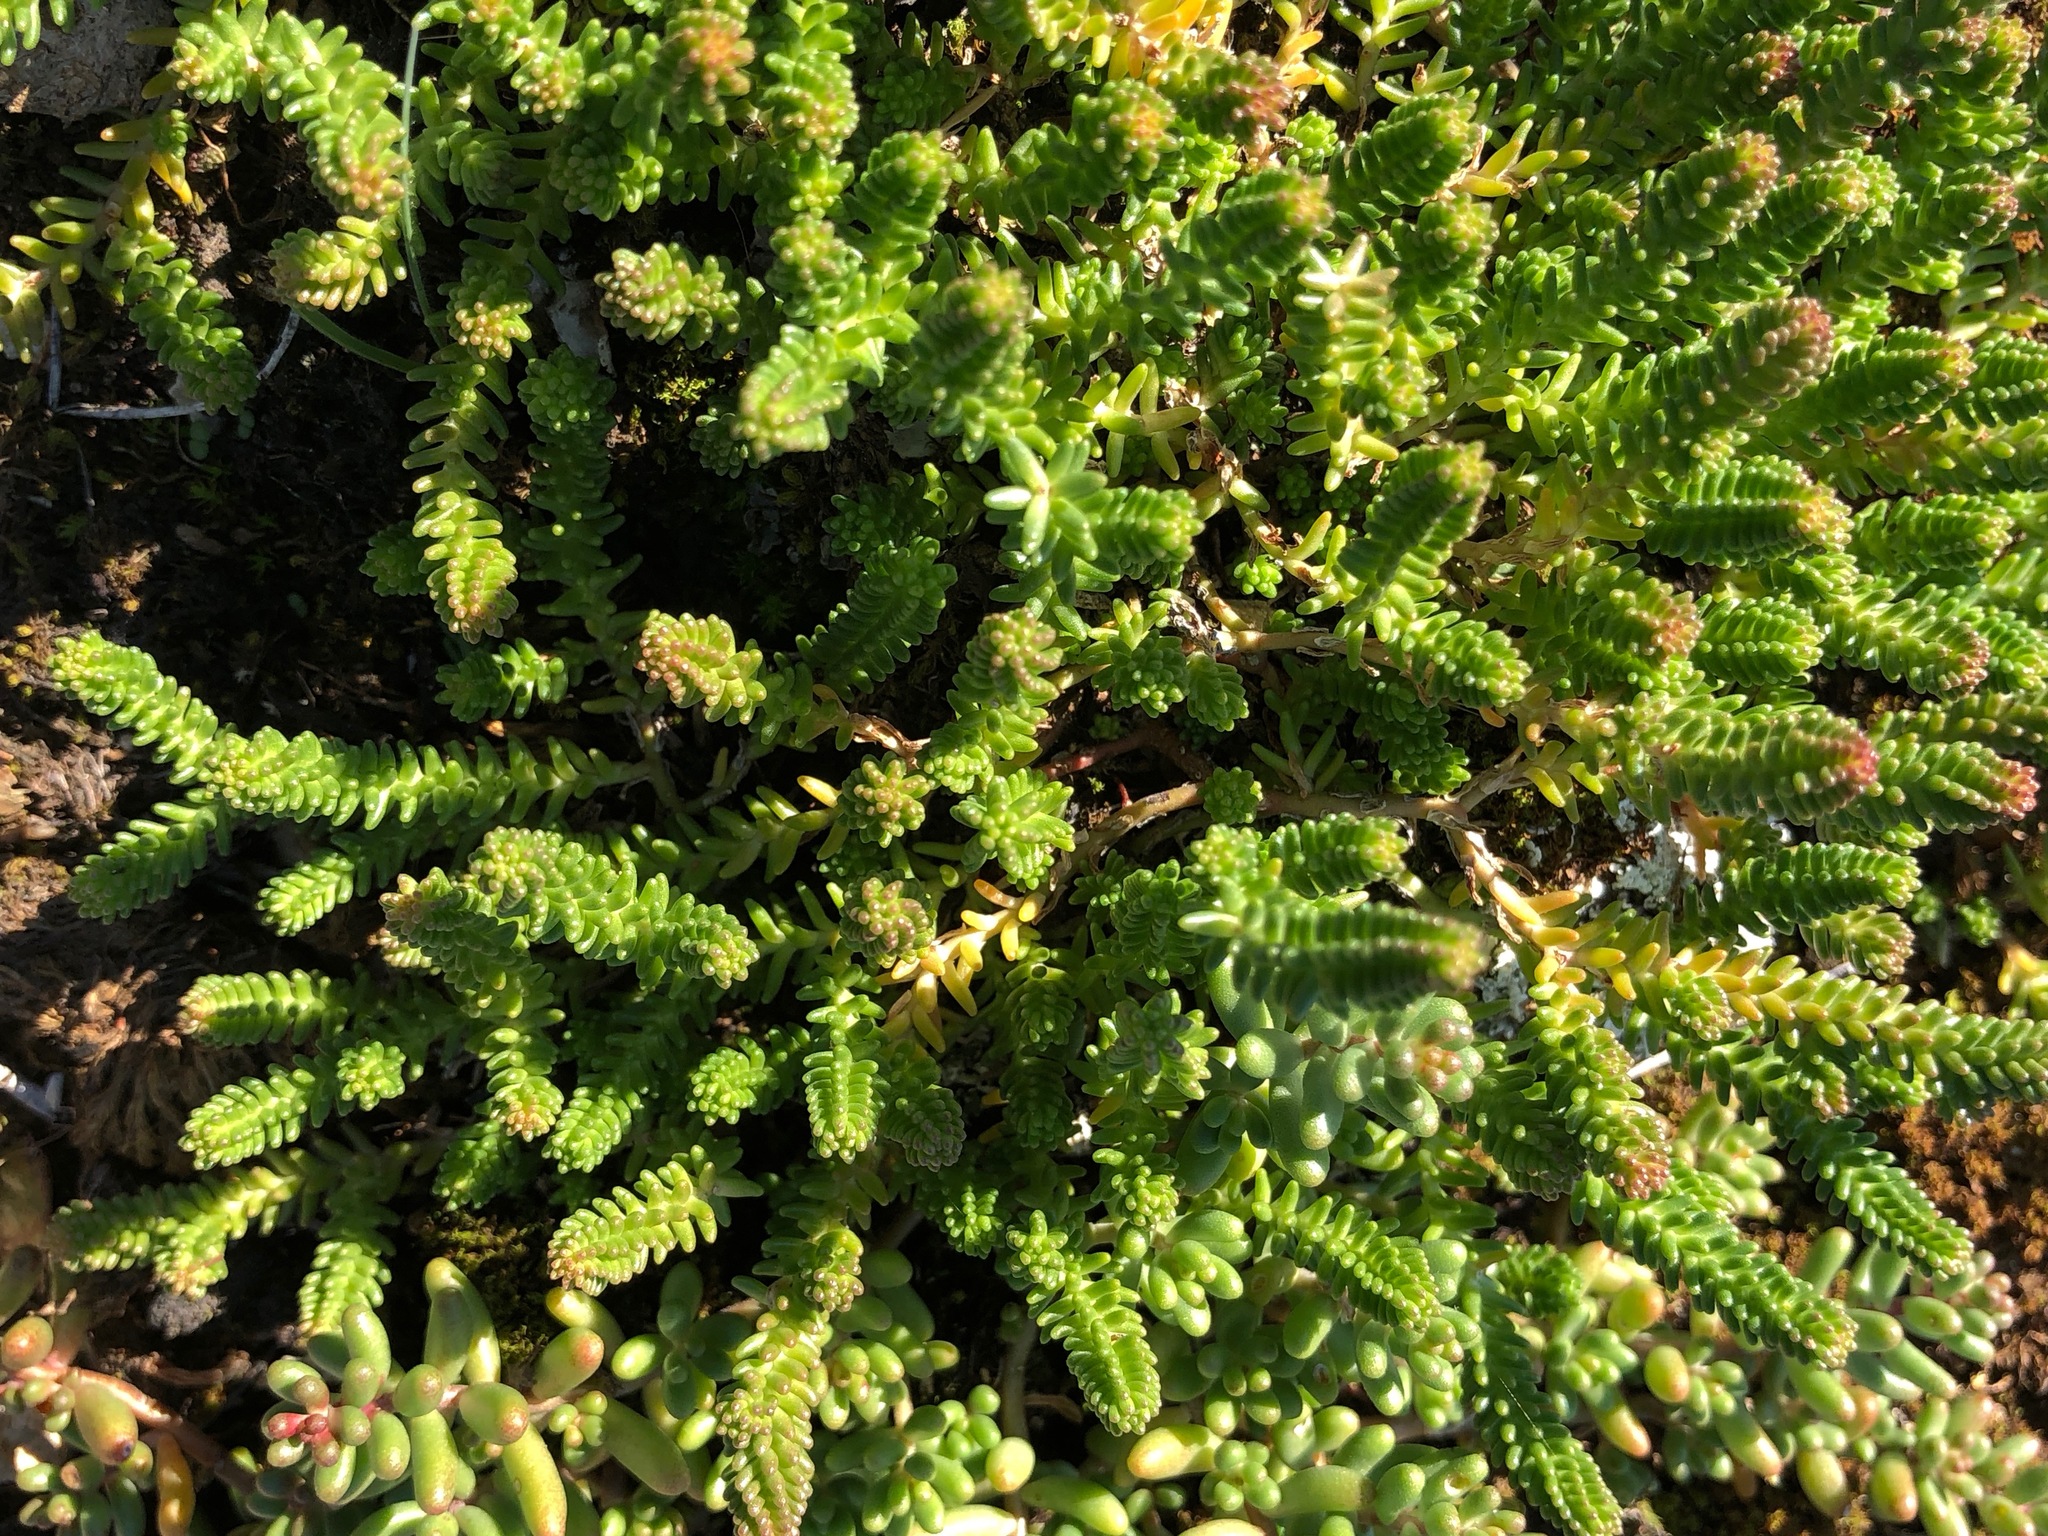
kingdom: Plantae
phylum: Tracheophyta
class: Magnoliopsida
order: Saxifragales
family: Crassulaceae
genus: Sedum
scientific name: Sedum sexangulare
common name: Tasteless stonecrop
